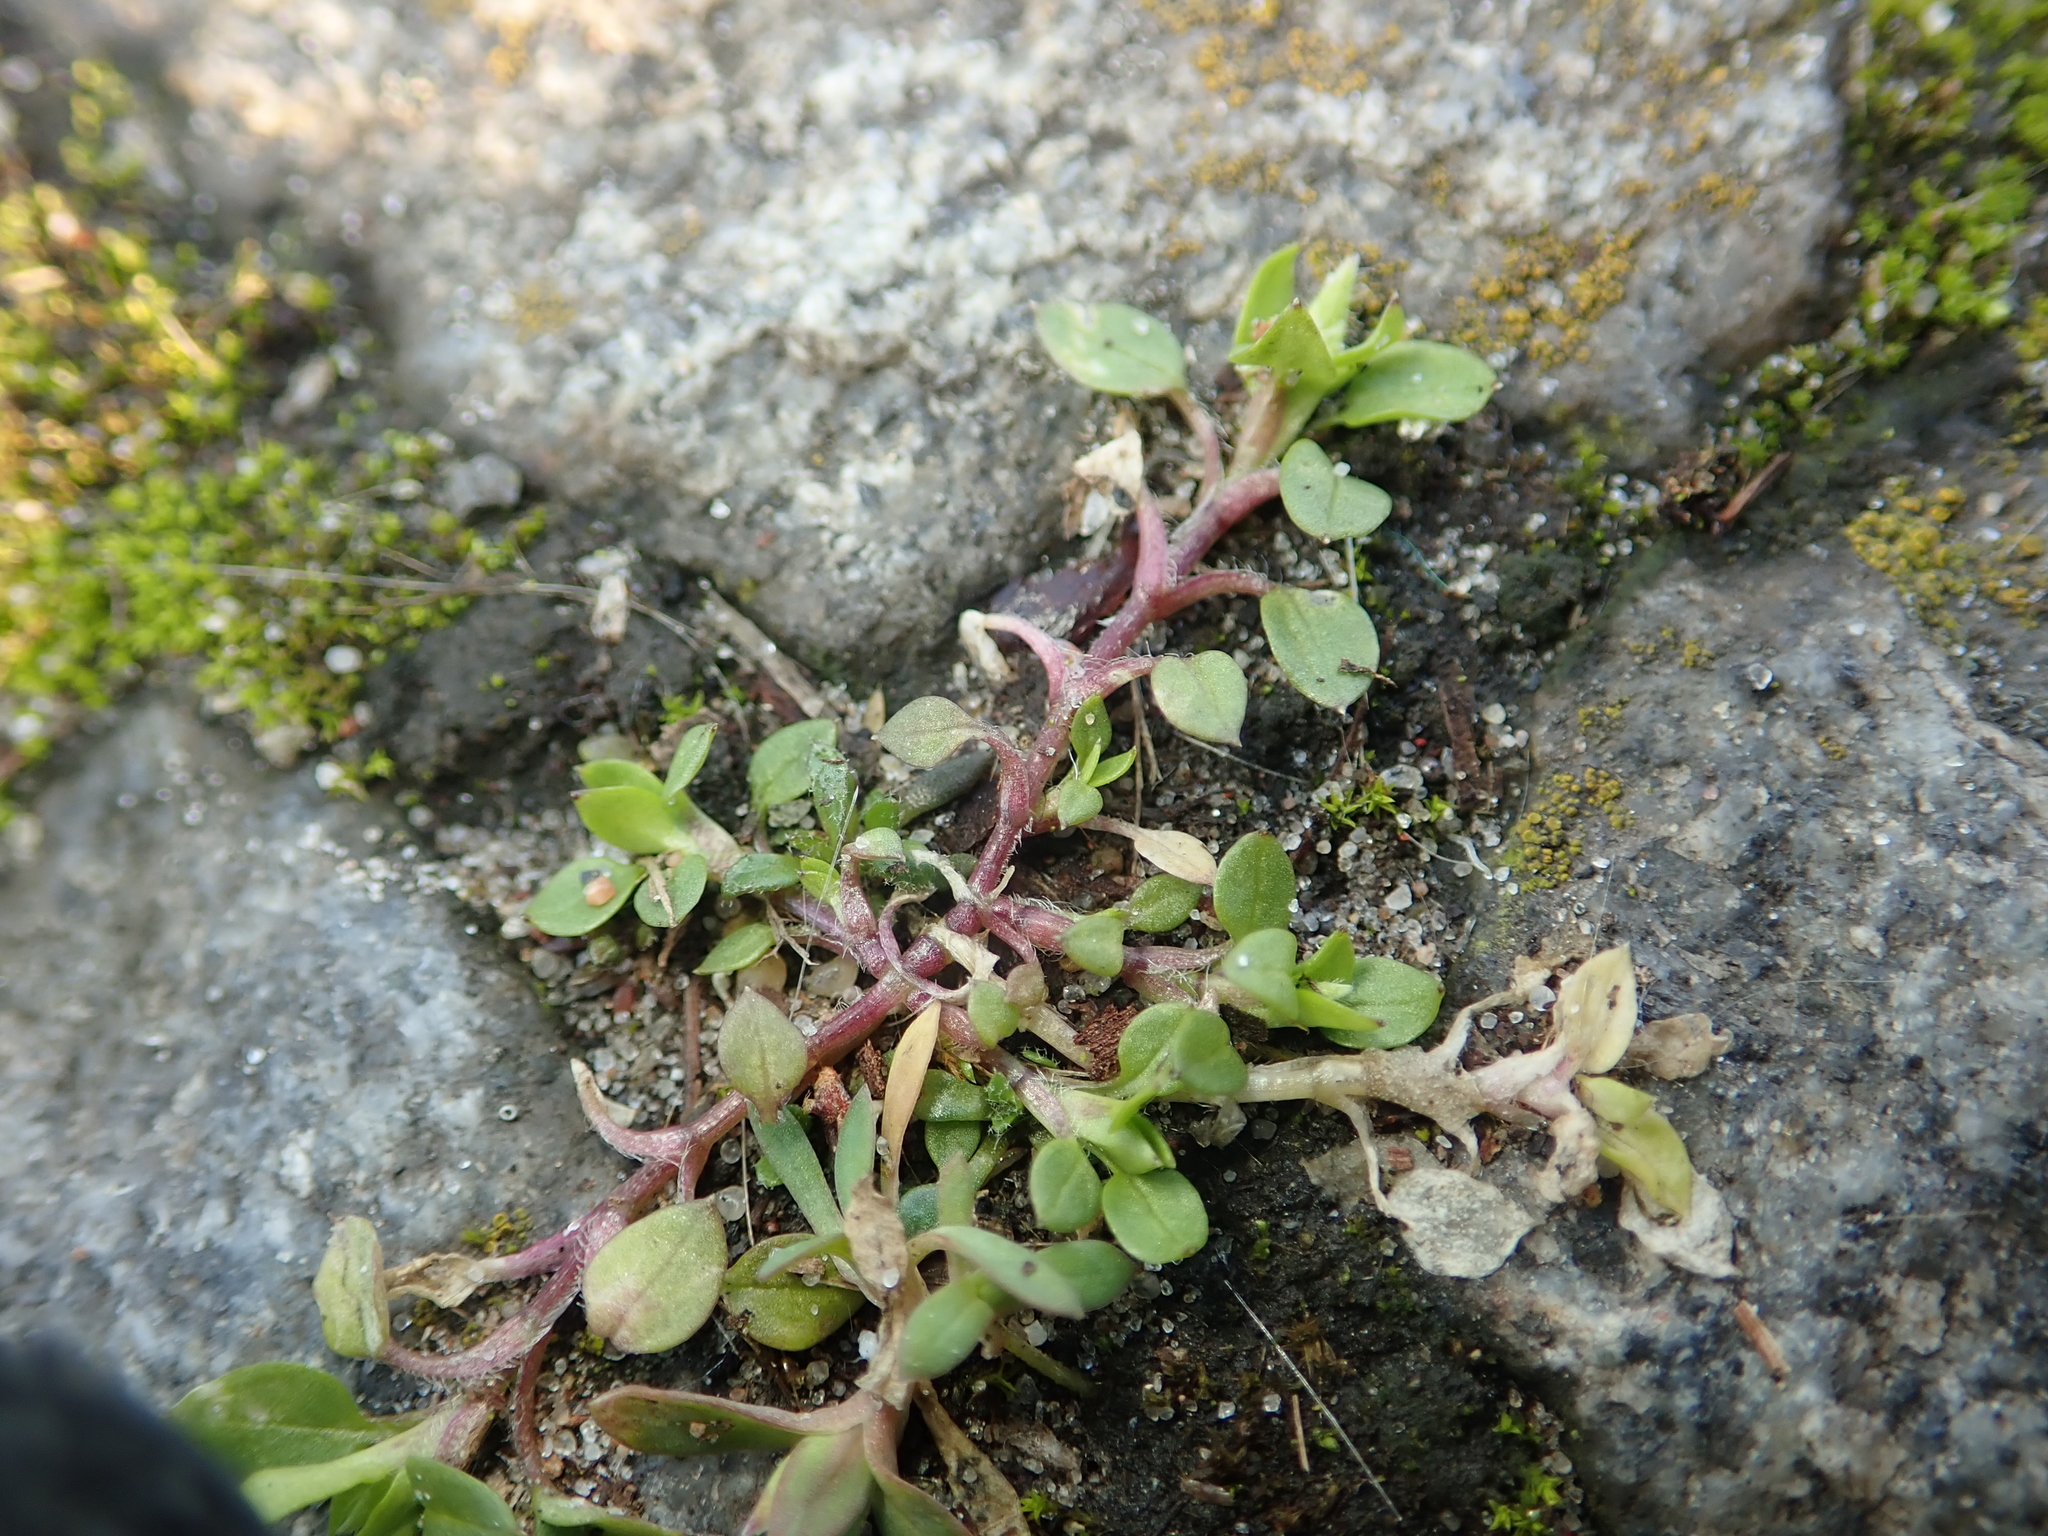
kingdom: Plantae
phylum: Tracheophyta
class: Magnoliopsida
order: Caryophyllales
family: Caryophyllaceae
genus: Stellaria
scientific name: Stellaria media
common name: Common chickweed
